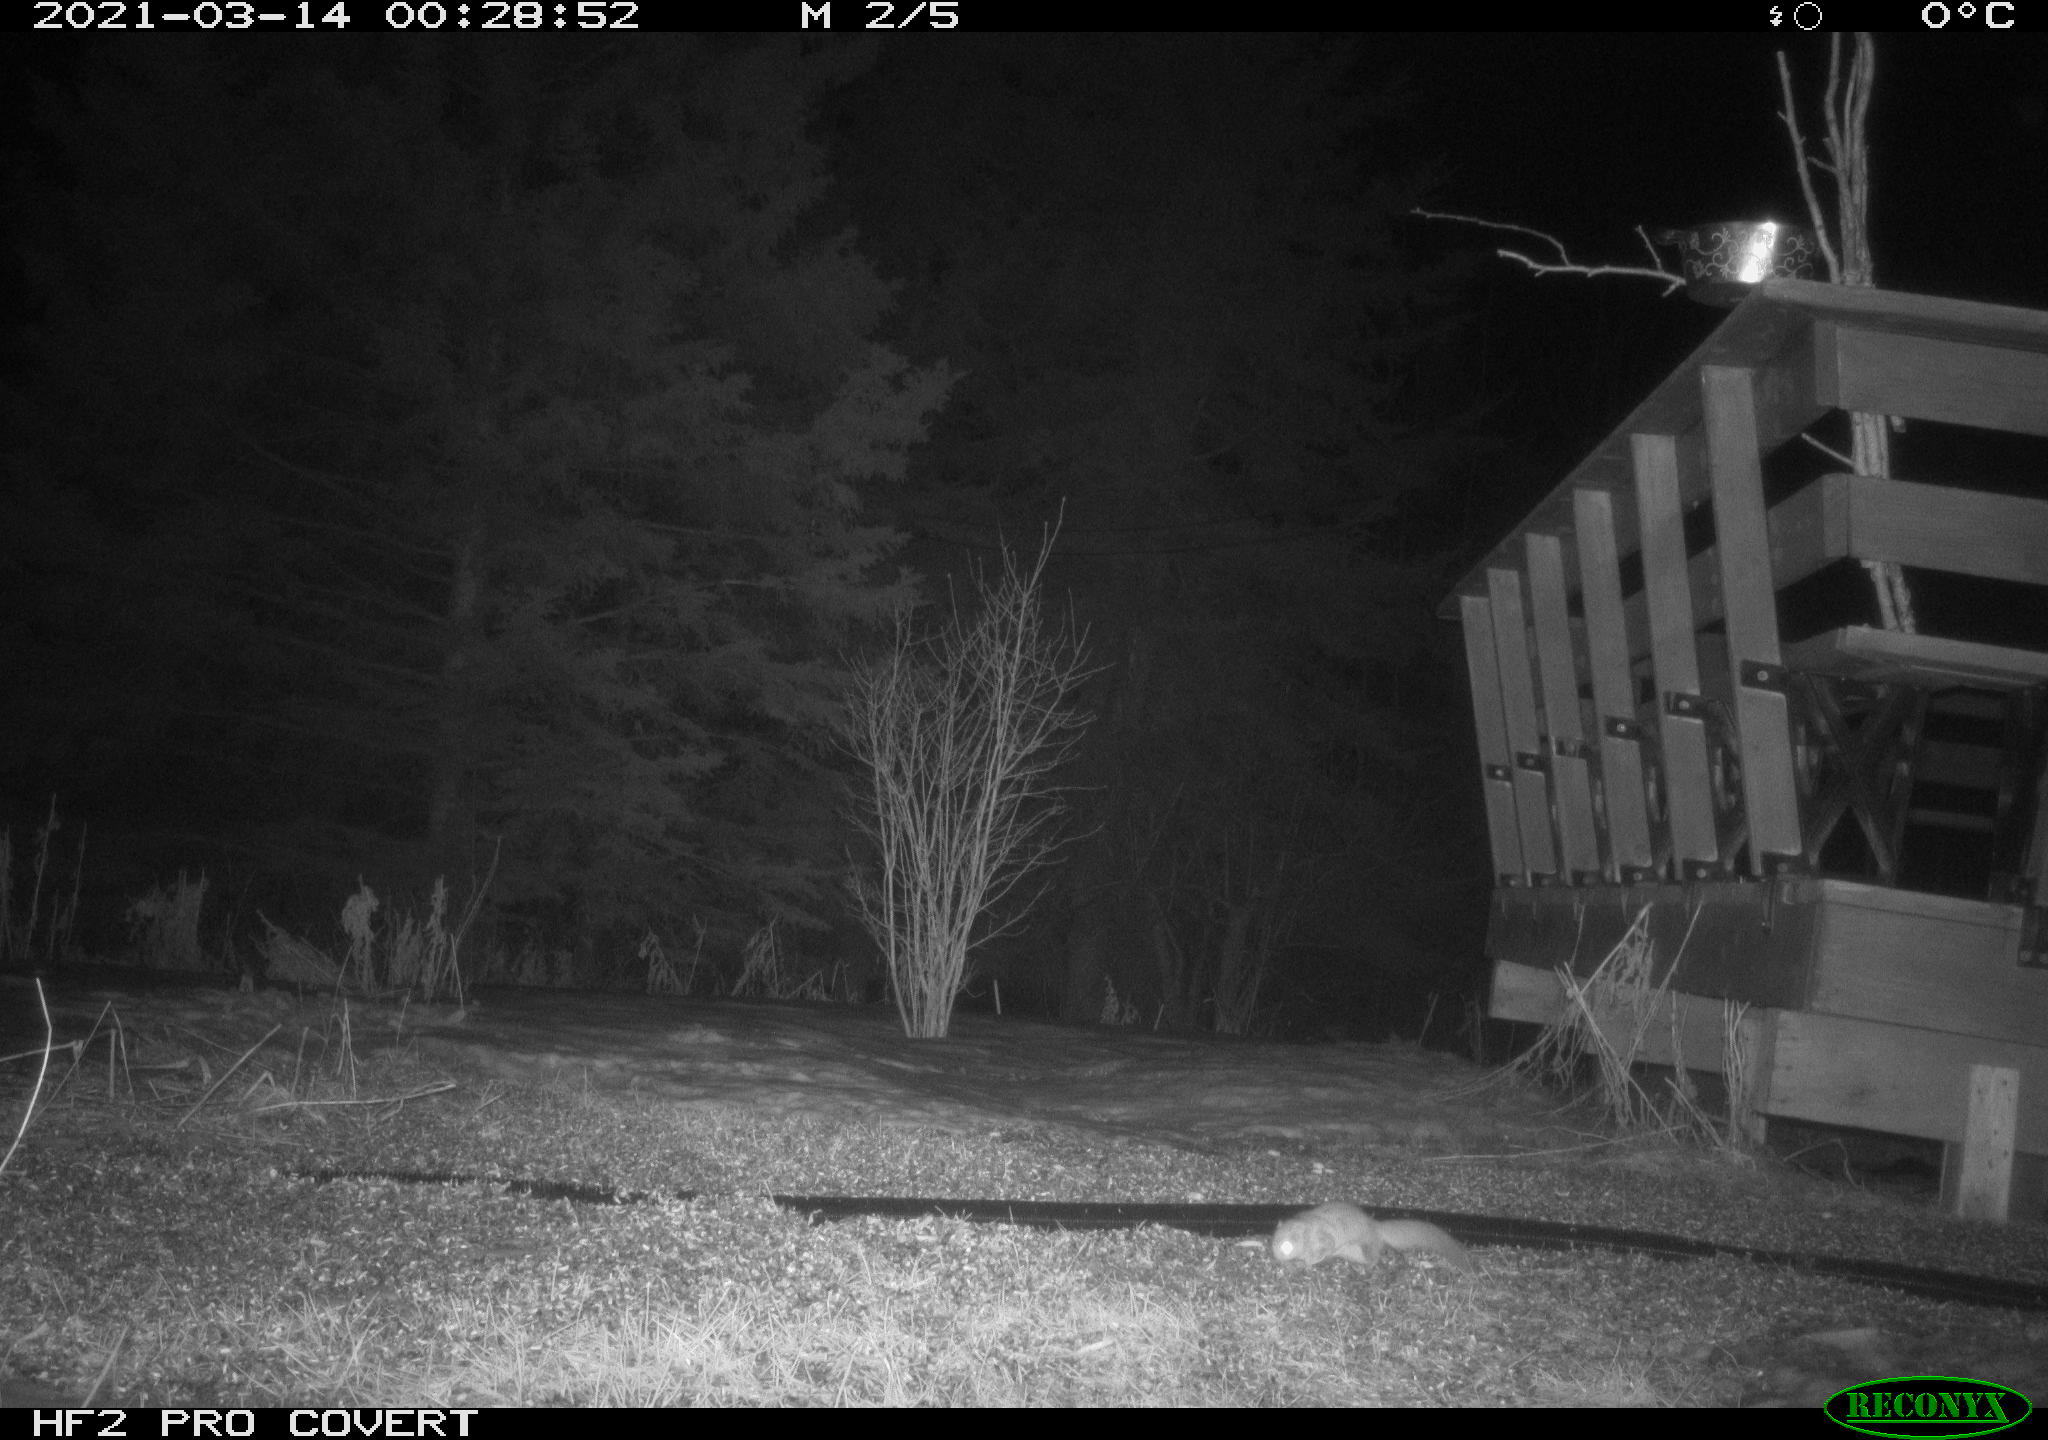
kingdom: Animalia
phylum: Chordata
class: Mammalia
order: Rodentia
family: Sciuridae
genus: Glaucomys
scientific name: Glaucomys sabrinus
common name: Northern flying squirrel
